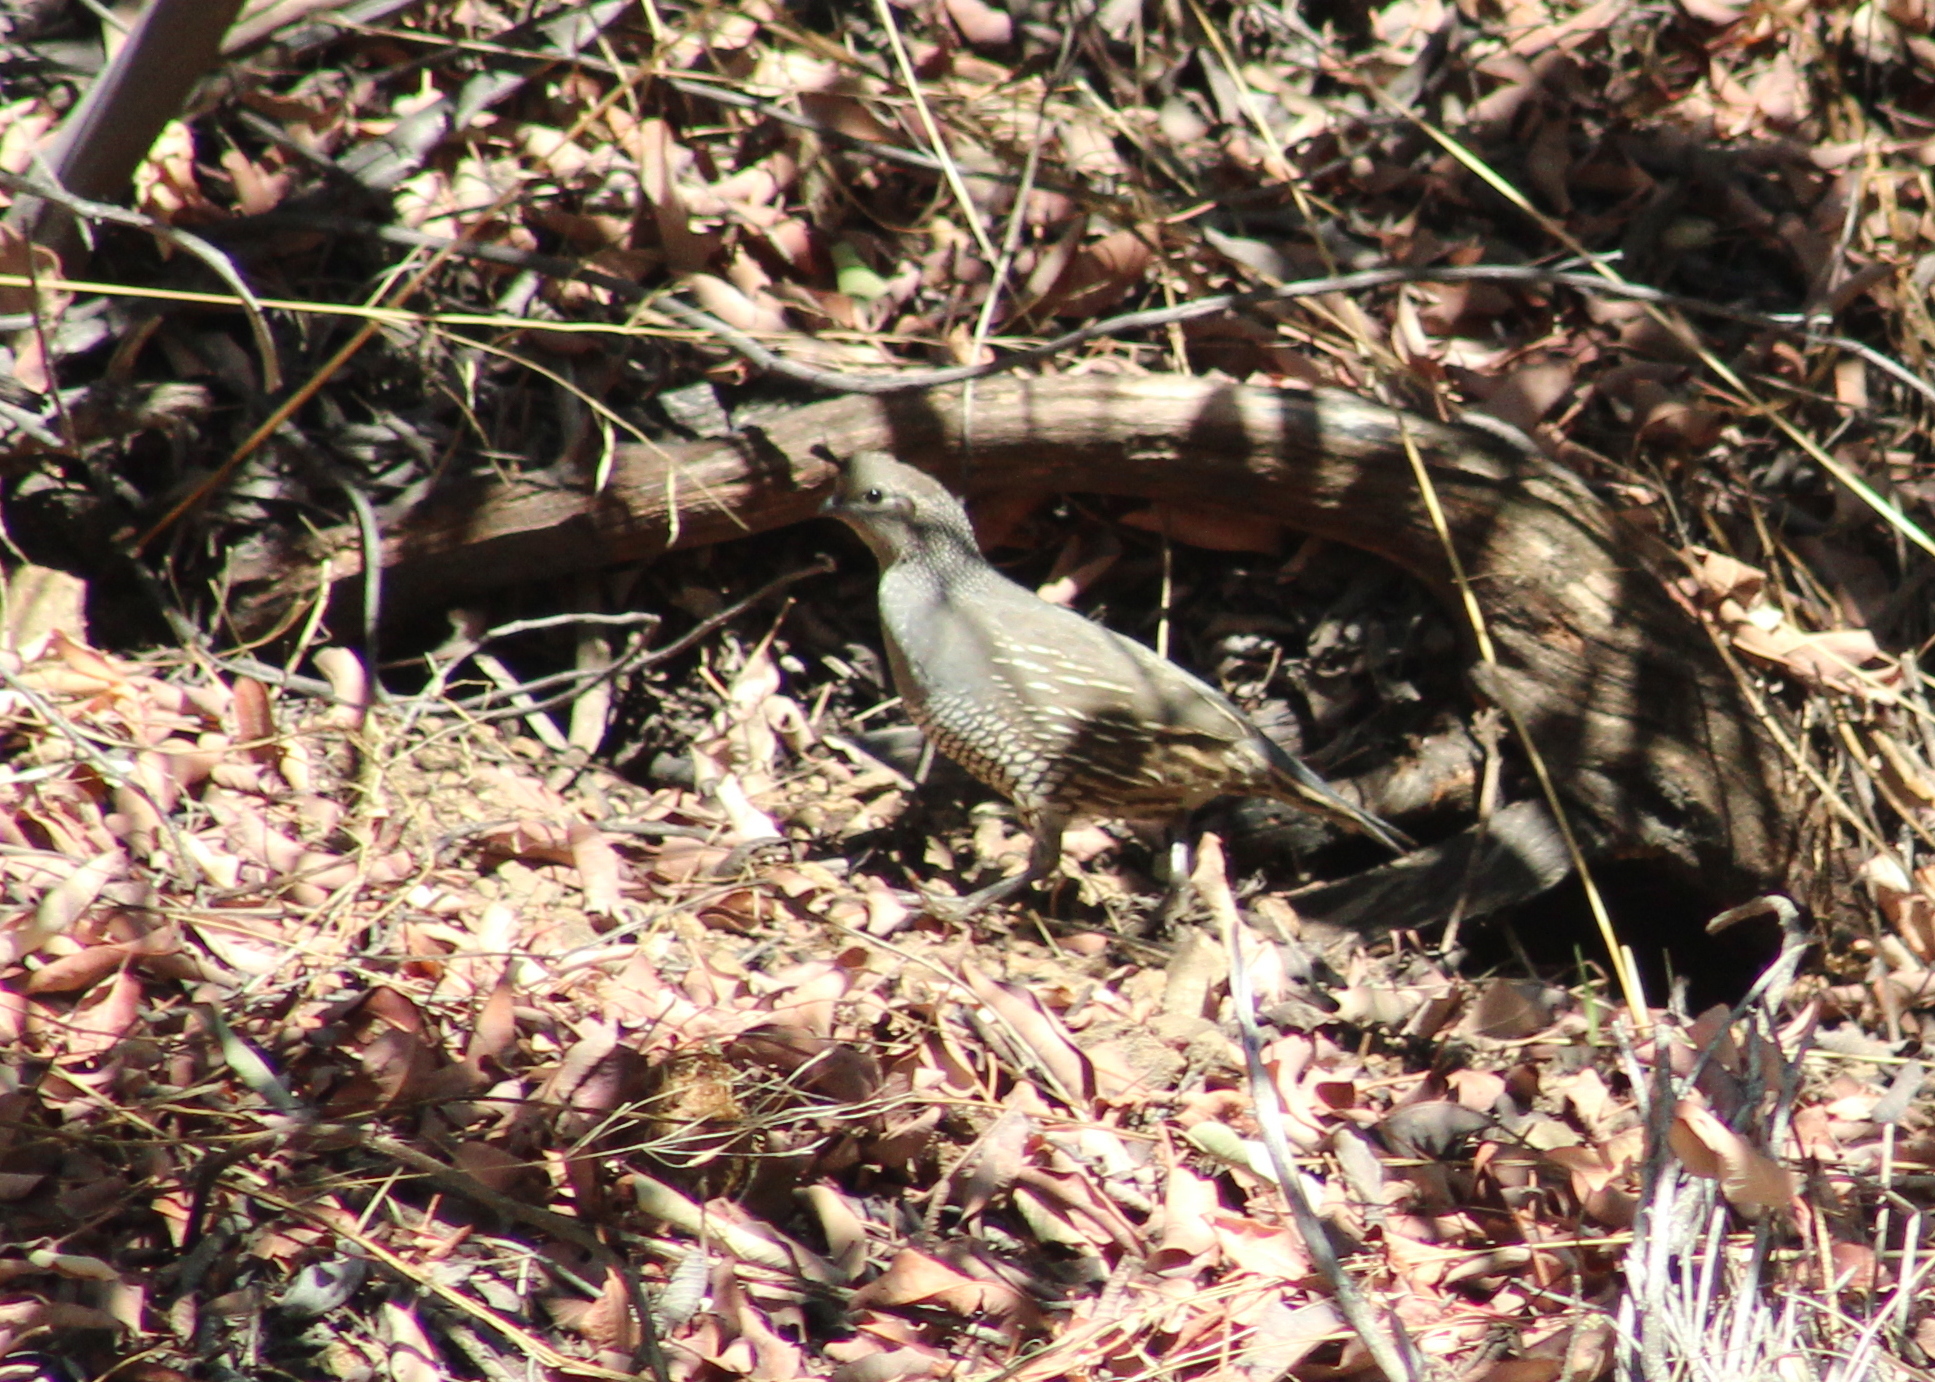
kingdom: Animalia
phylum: Chordata
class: Aves
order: Galliformes
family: Odontophoridae
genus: Callipepla
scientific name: Callipepla californica
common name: California quail
